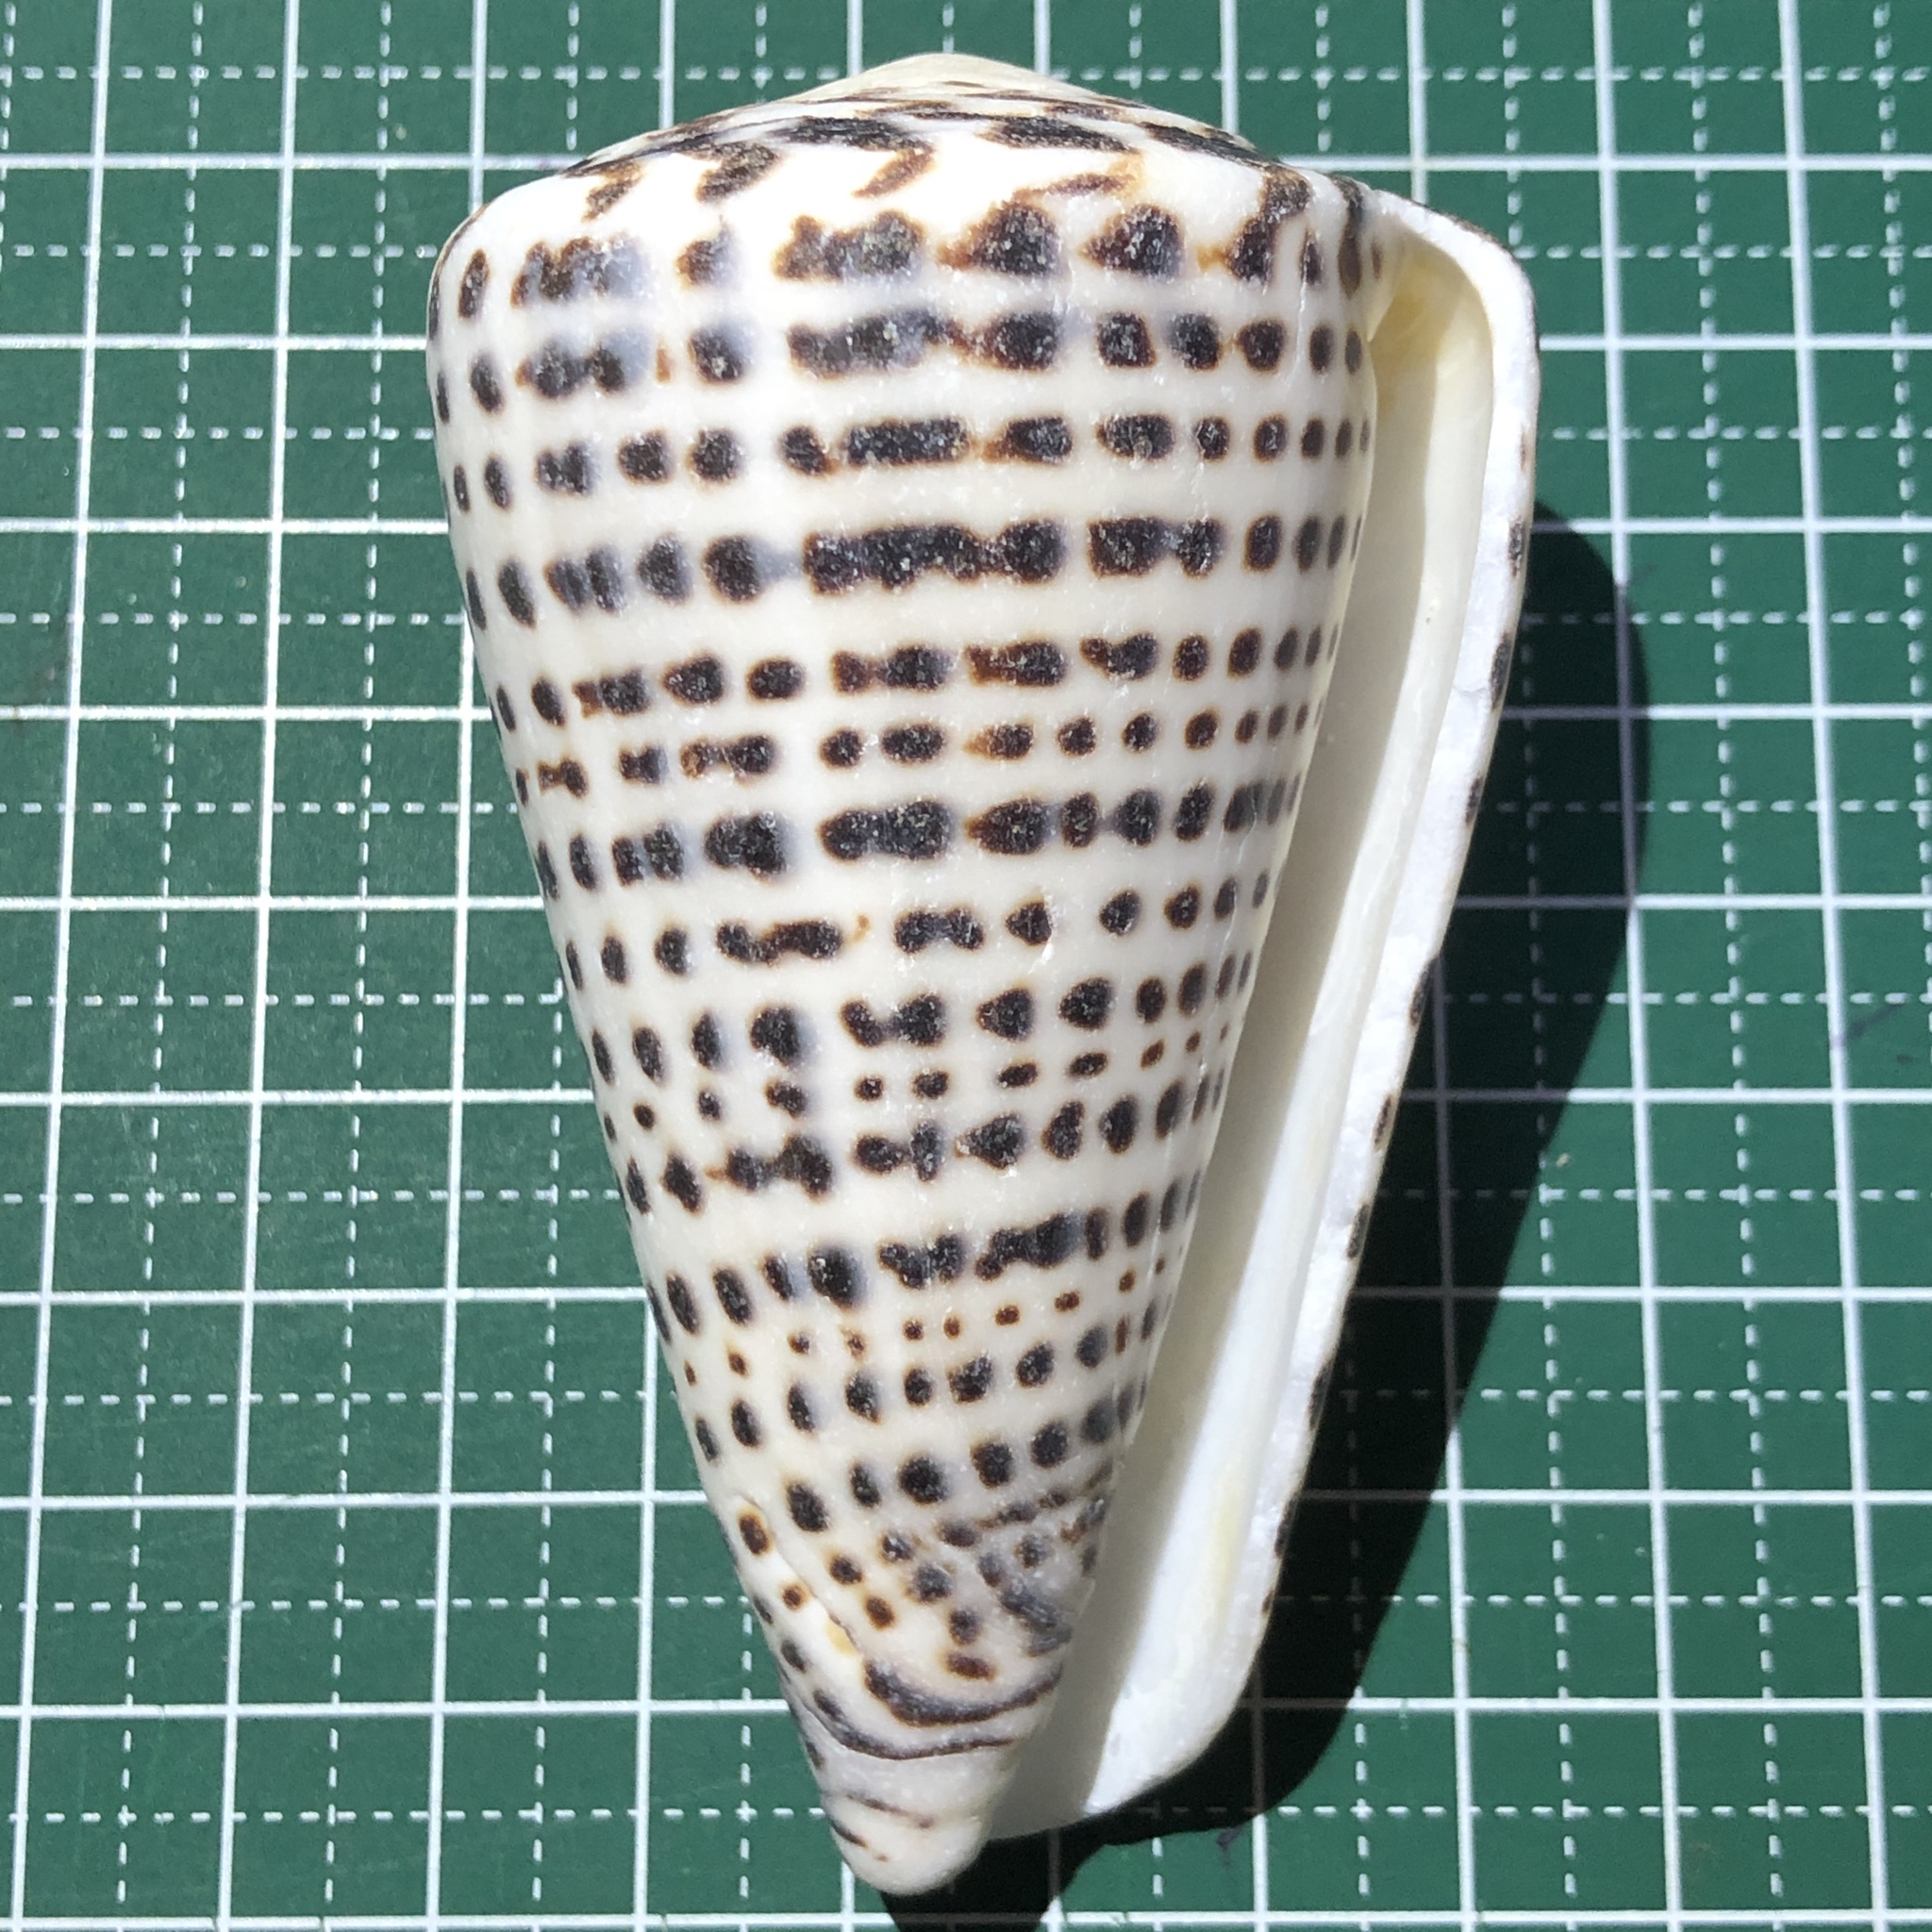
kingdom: Animalia
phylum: Mollusca
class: Gastropoda
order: Neogastropoda
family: Conidae
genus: Conus
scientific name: Conus leopardus
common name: Leopard cone
